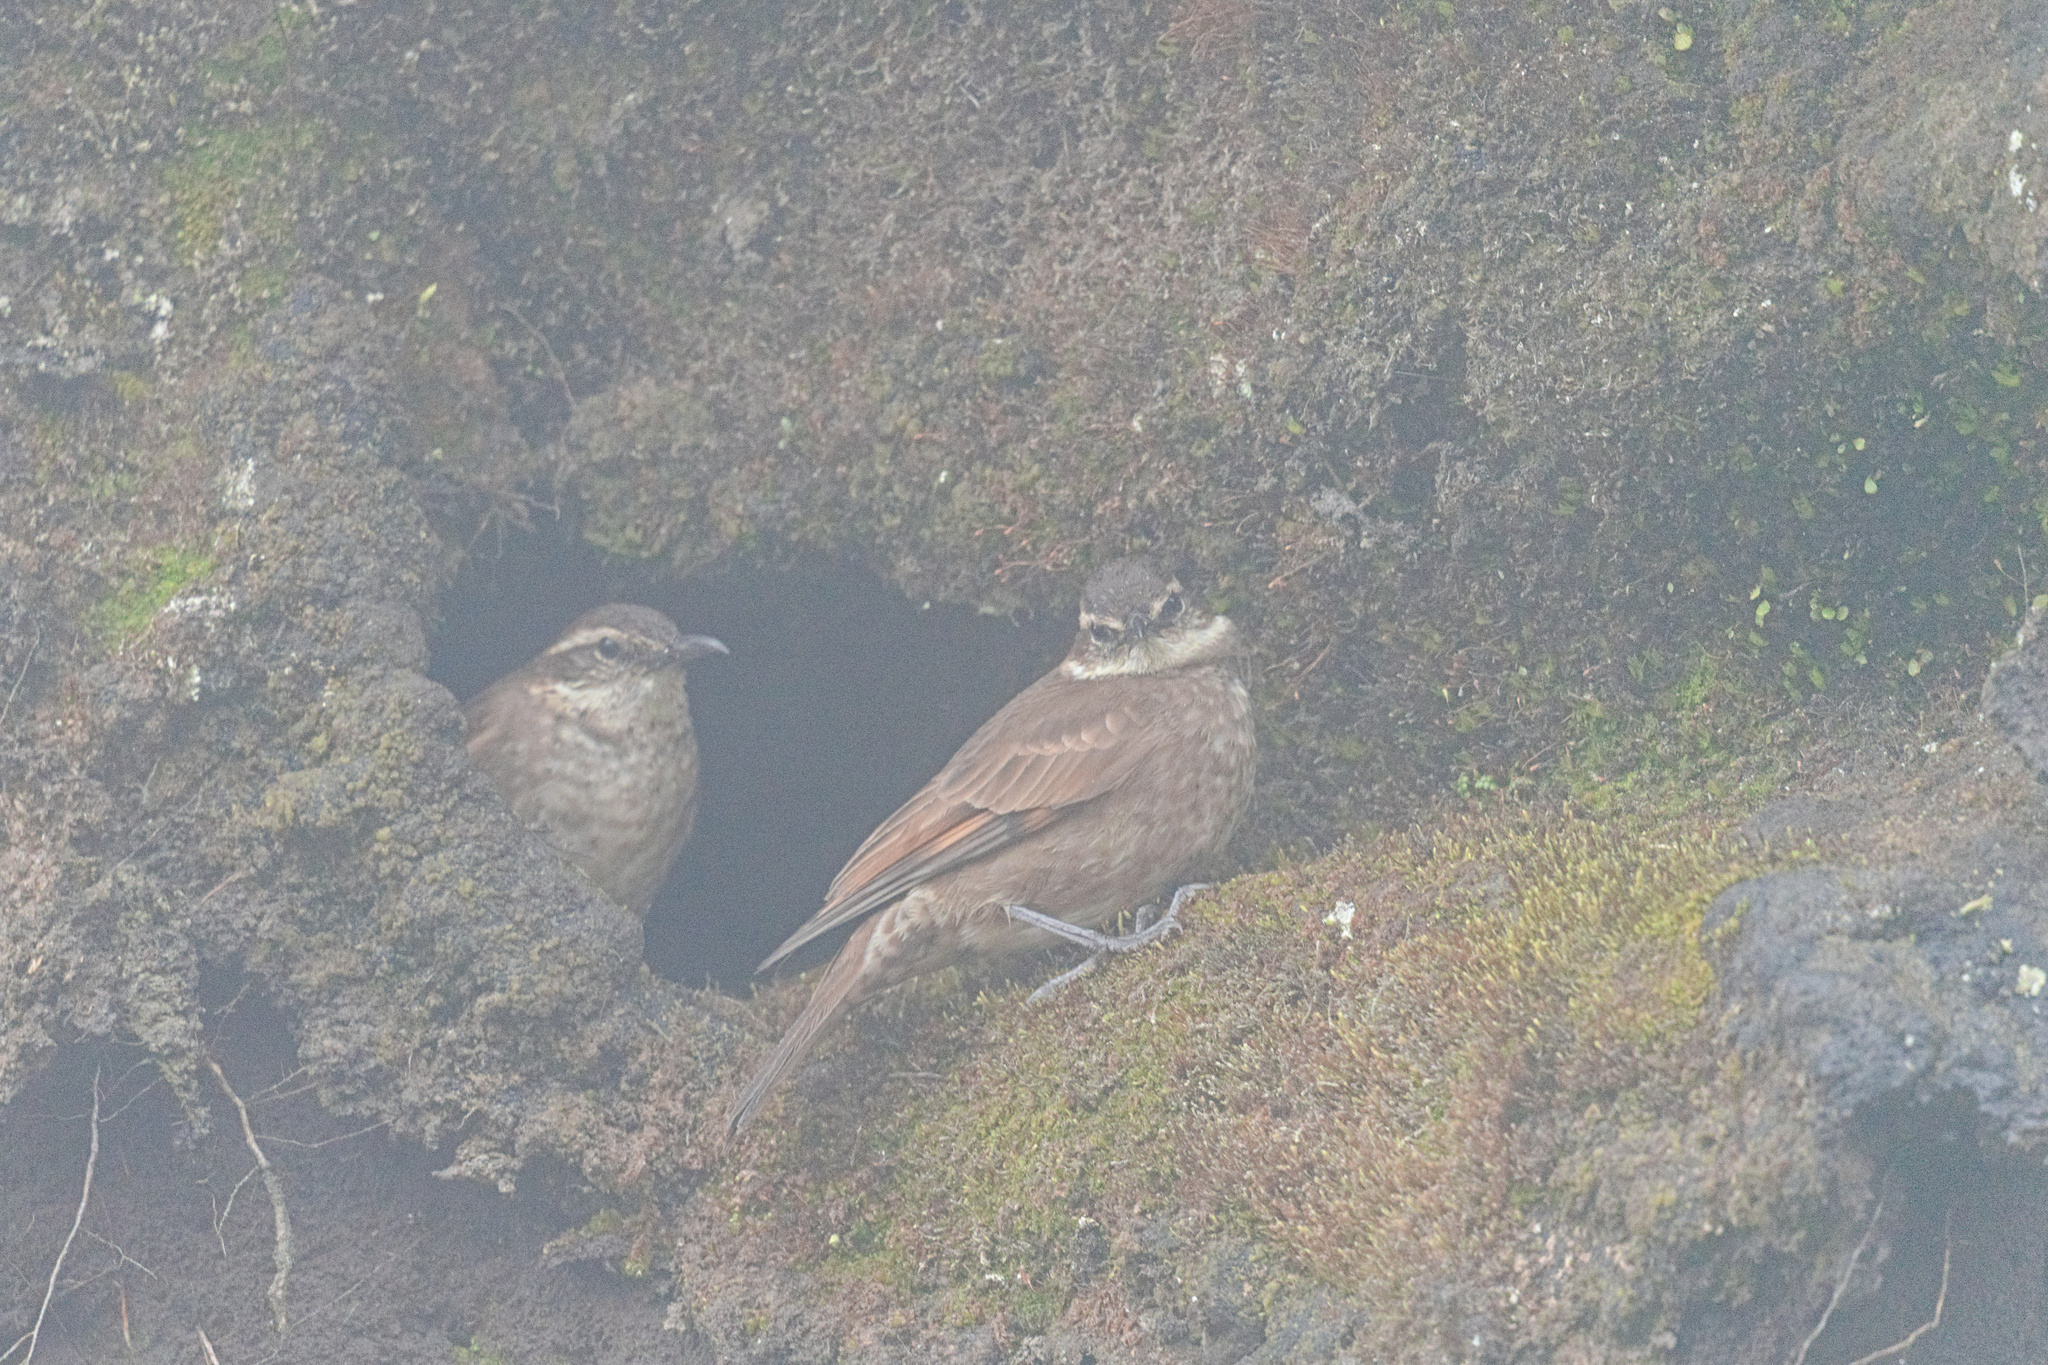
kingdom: Animalia
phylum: Chordata
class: Aves
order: Passeriformes
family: Furnariidae
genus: Cinclodes
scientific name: Cinclodes excelsior
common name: Stout-billed cinclodes
